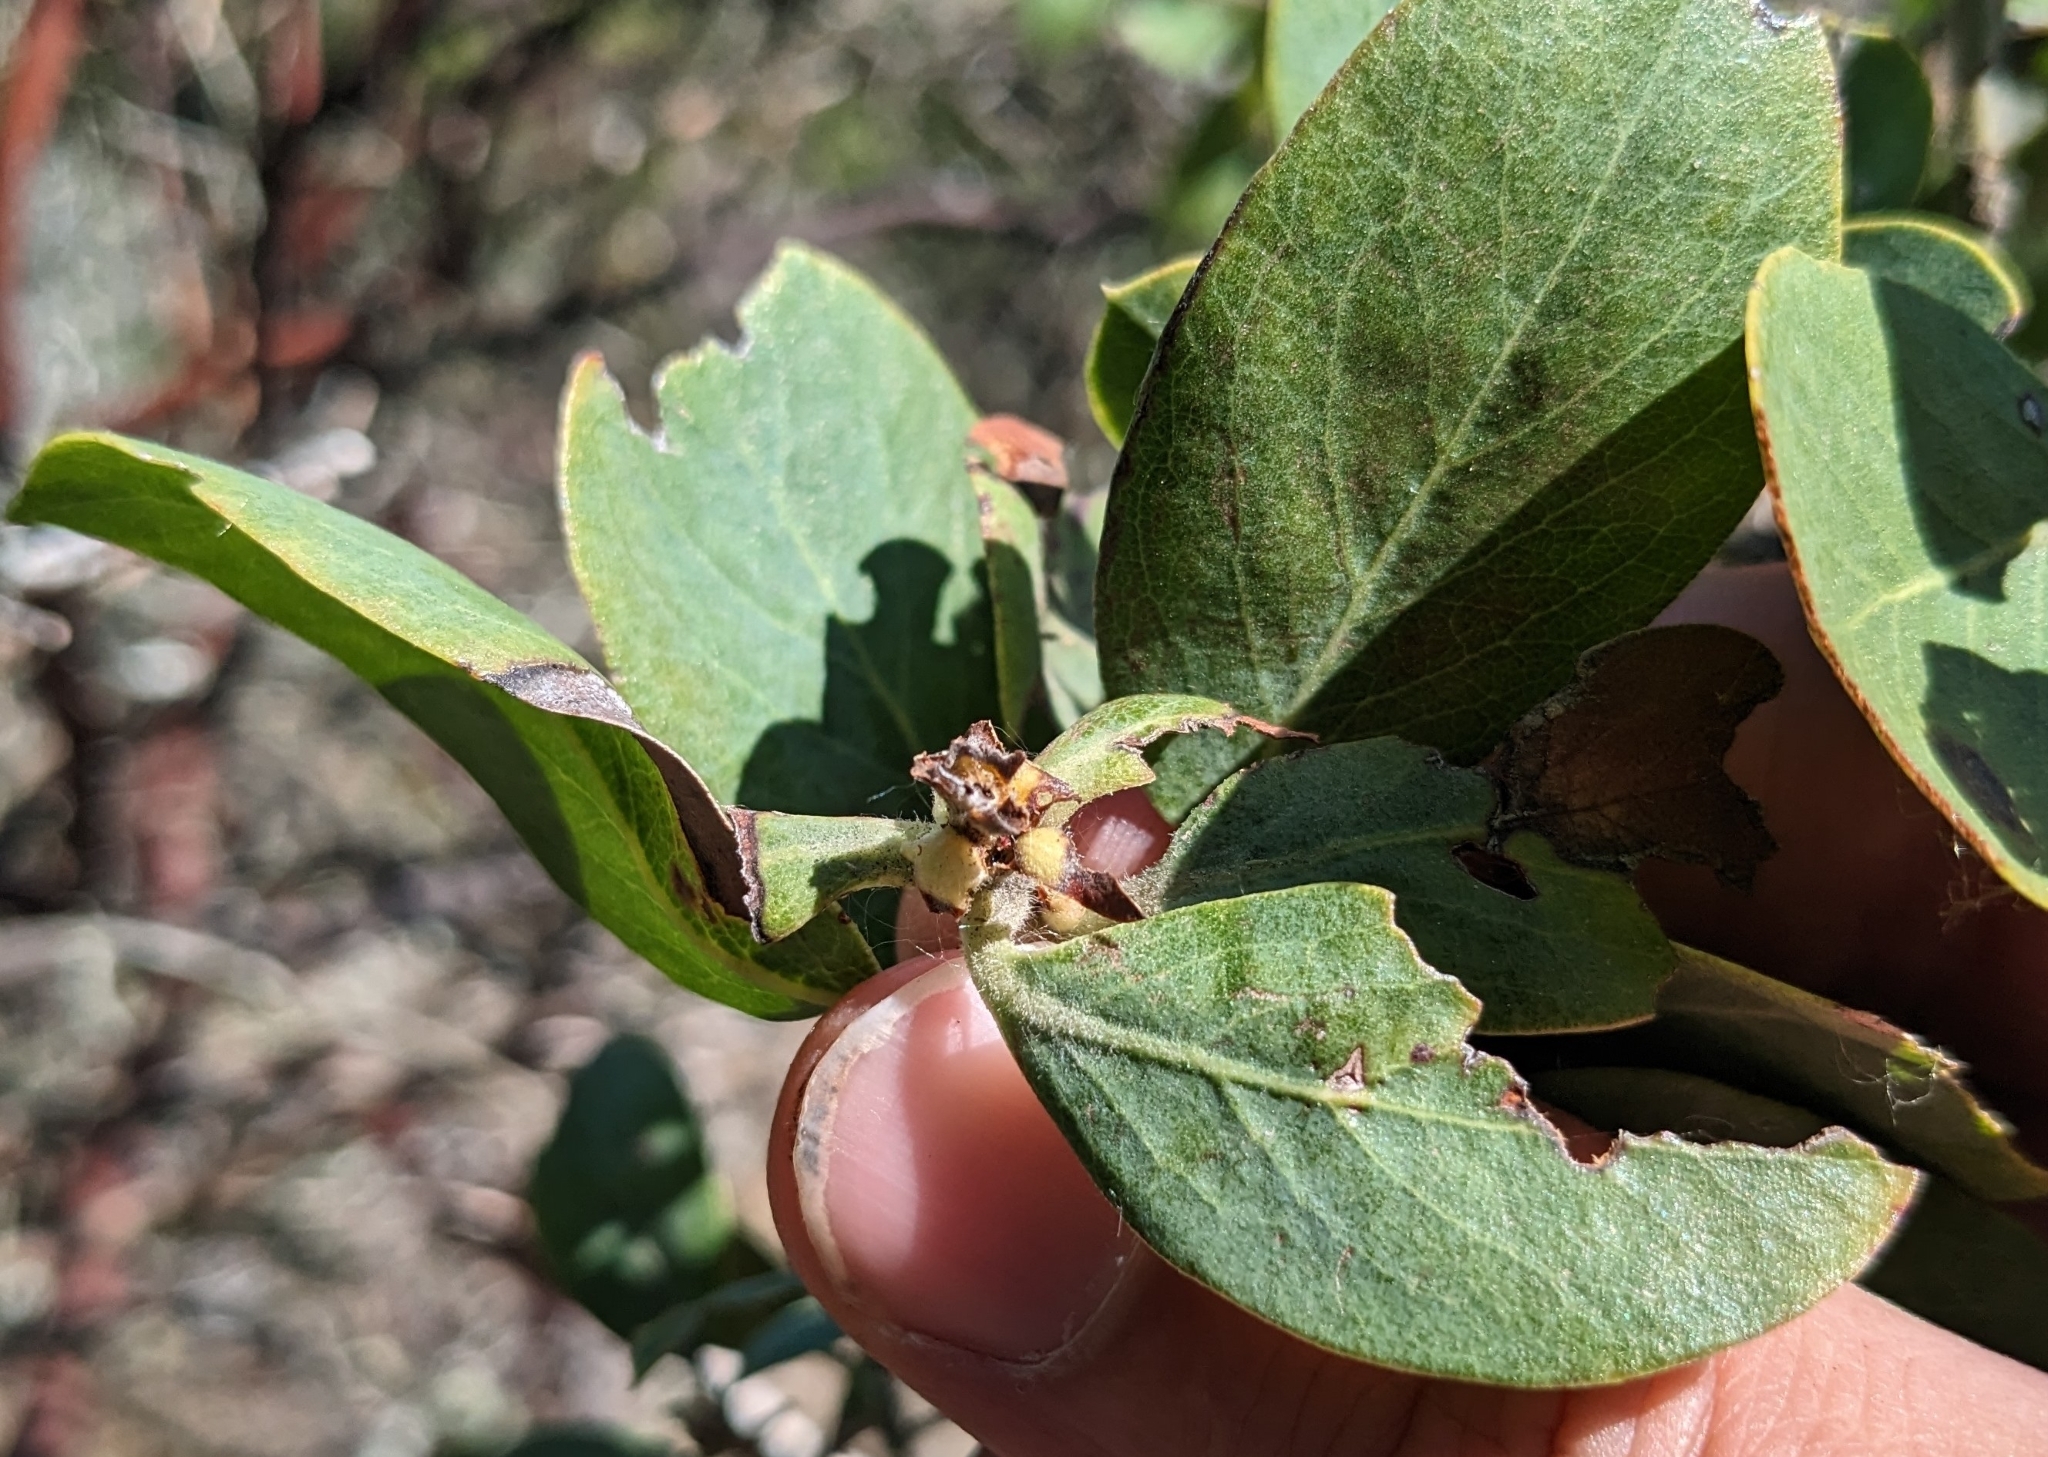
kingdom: Plantae
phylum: Tracheophyta
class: Magnoliopsida
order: Ericales
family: Ericaceae
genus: Arctostaphylos
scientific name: Arctostaphylos columbiana
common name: Bristly bearberry
